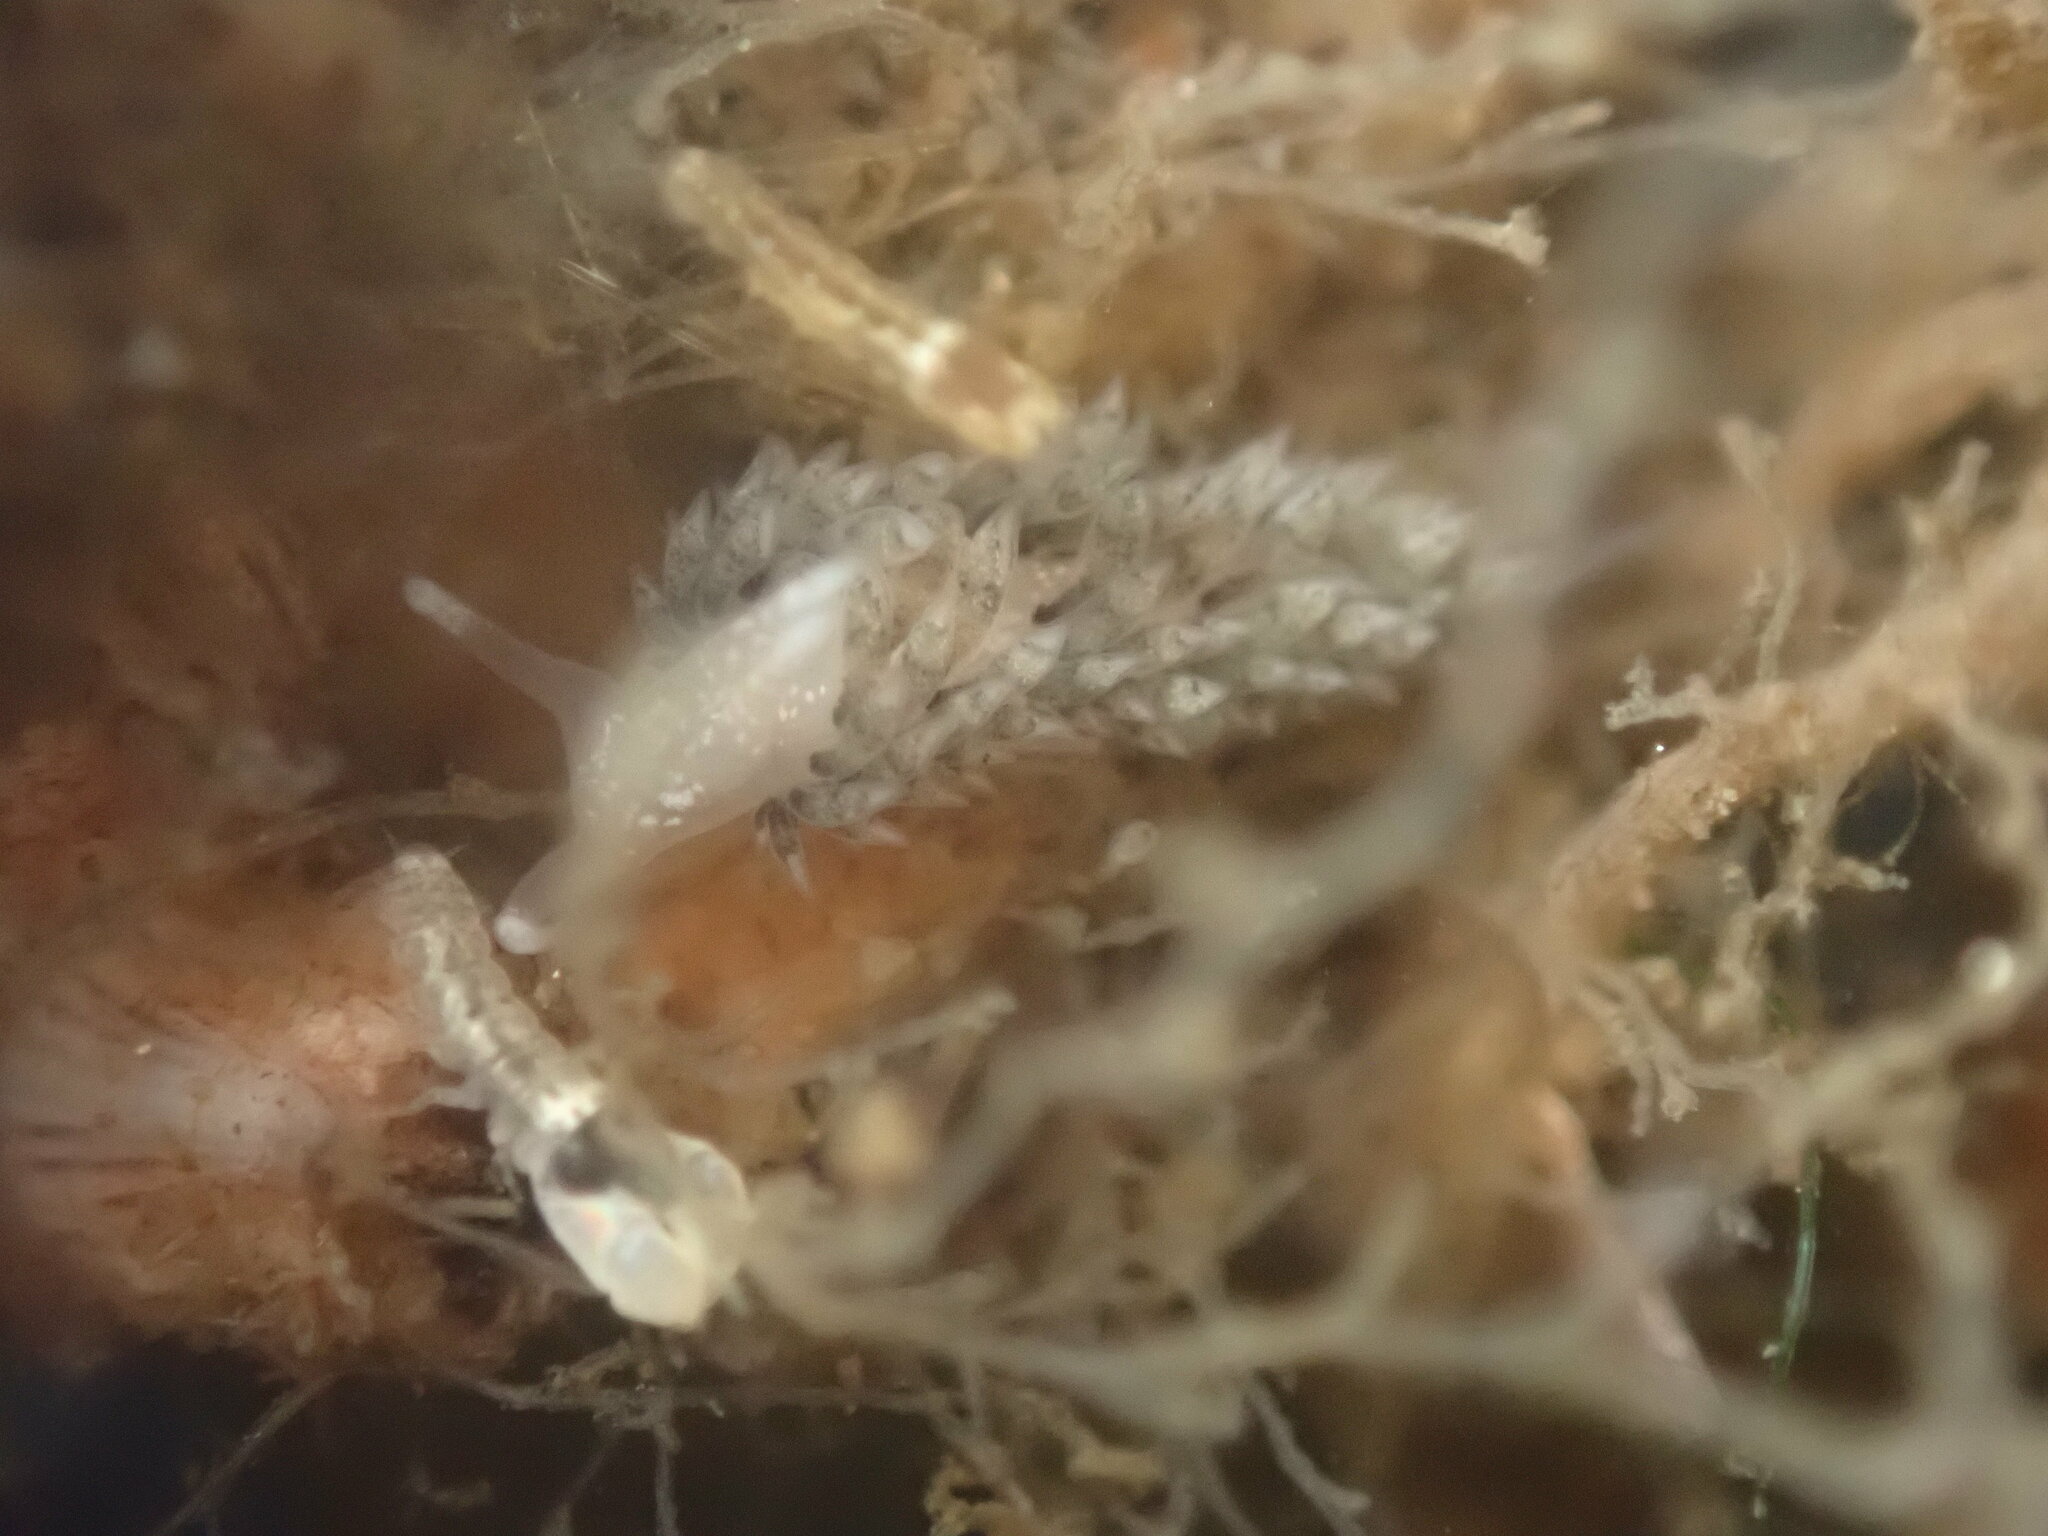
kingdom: Animalia
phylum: Mollusca
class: Gastropoda
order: Nudibranchia
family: Facelinidae
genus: Emarcusia
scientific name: Emarcusia morroensis
